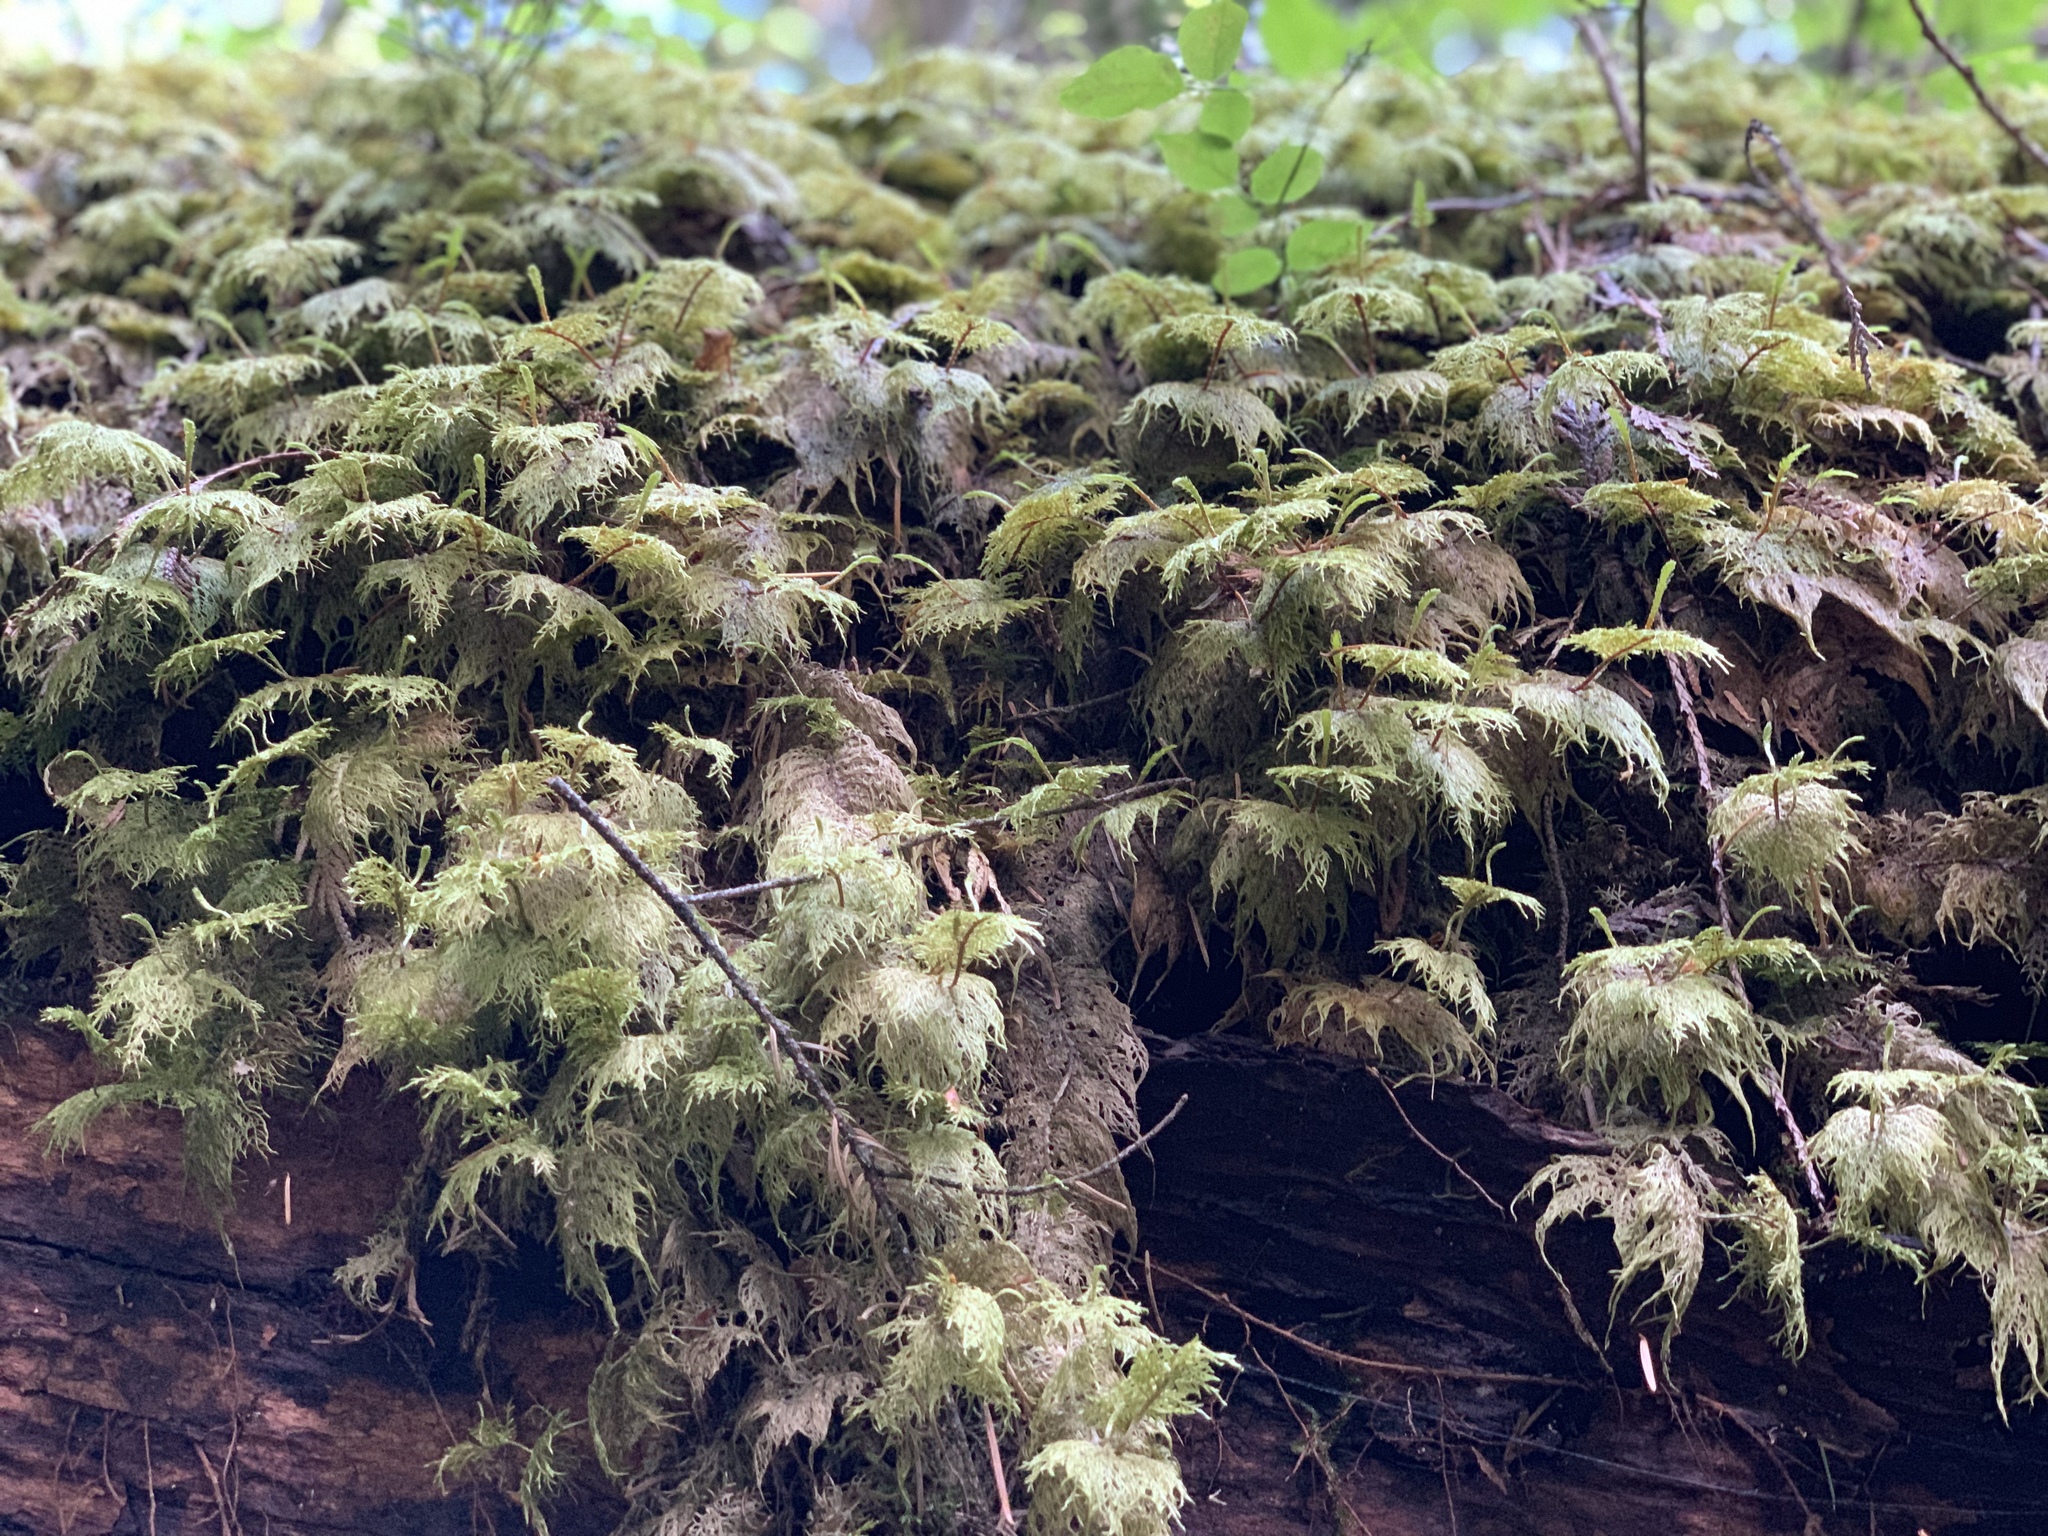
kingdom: Plantae
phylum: Bryophyta
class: Bryopsida
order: Hypnales
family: Hylocomiaceae
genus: Hylocomium
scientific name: Hylocomium splendens
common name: Stairstep moss
